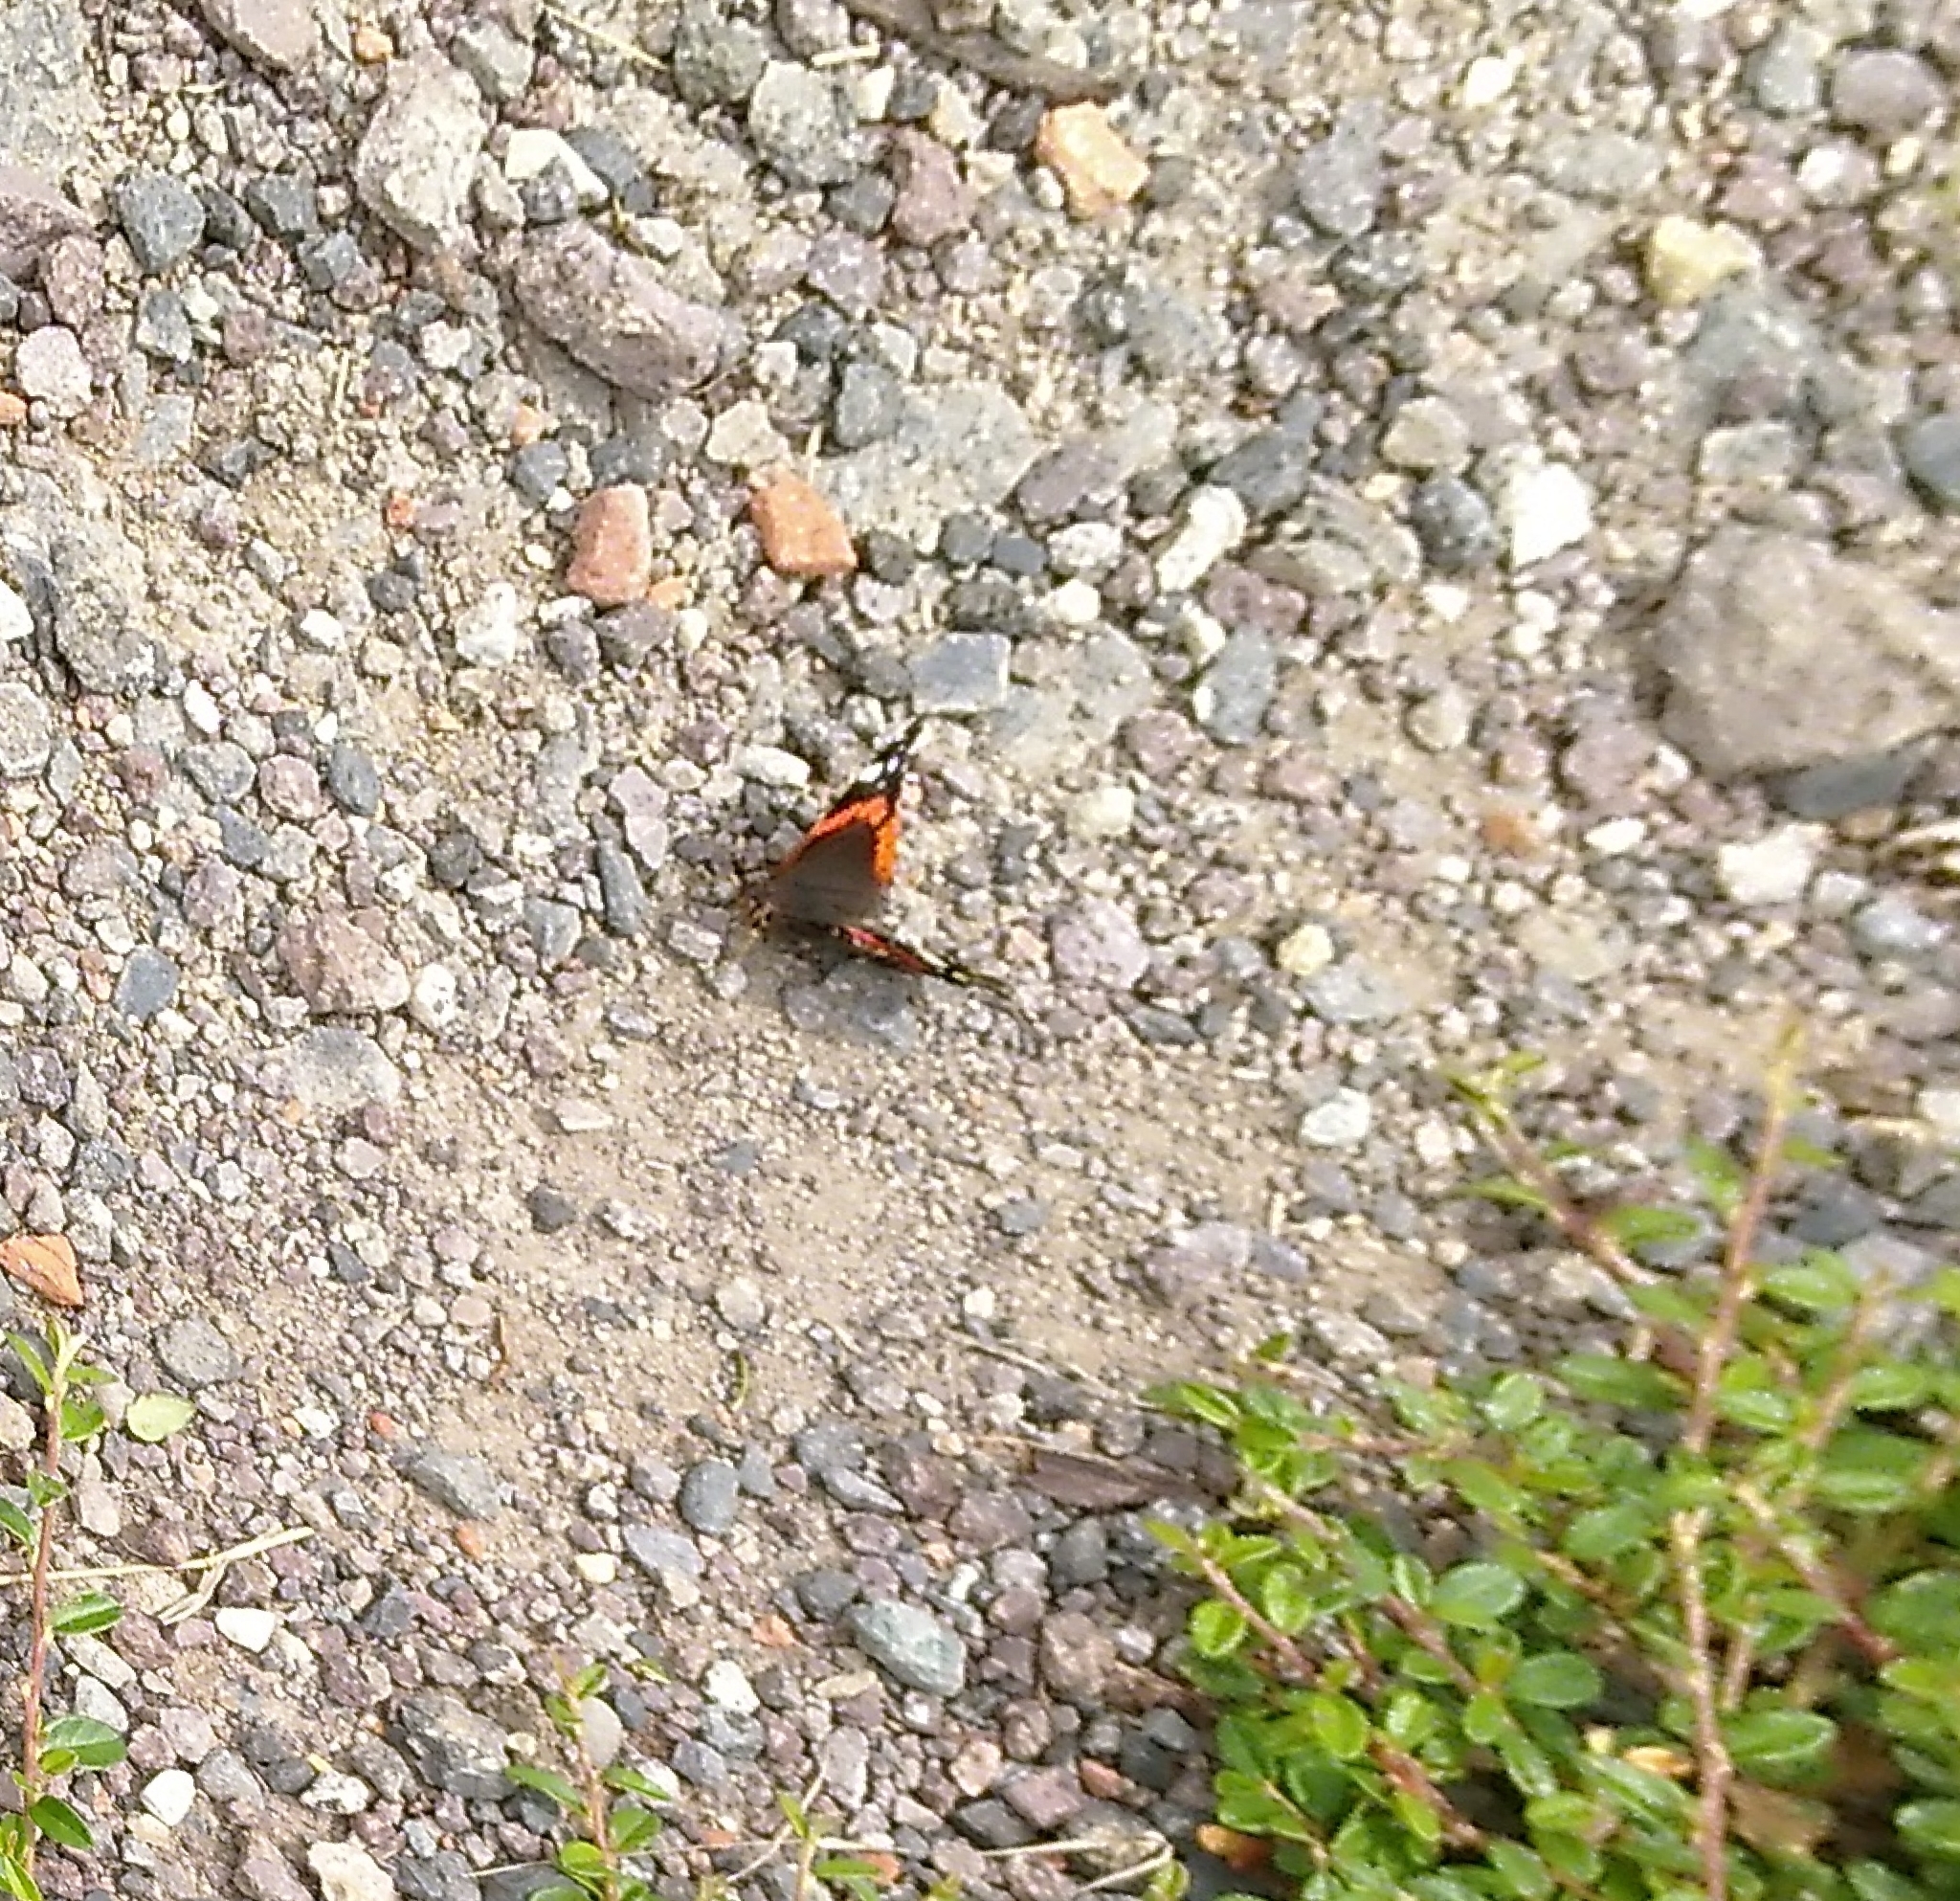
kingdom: Animalia
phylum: Arthropoda
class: Insecta
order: Lepidoptera
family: Nymphalidae
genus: Vanessa
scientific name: Vanessa atalanta
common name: Red admiral
